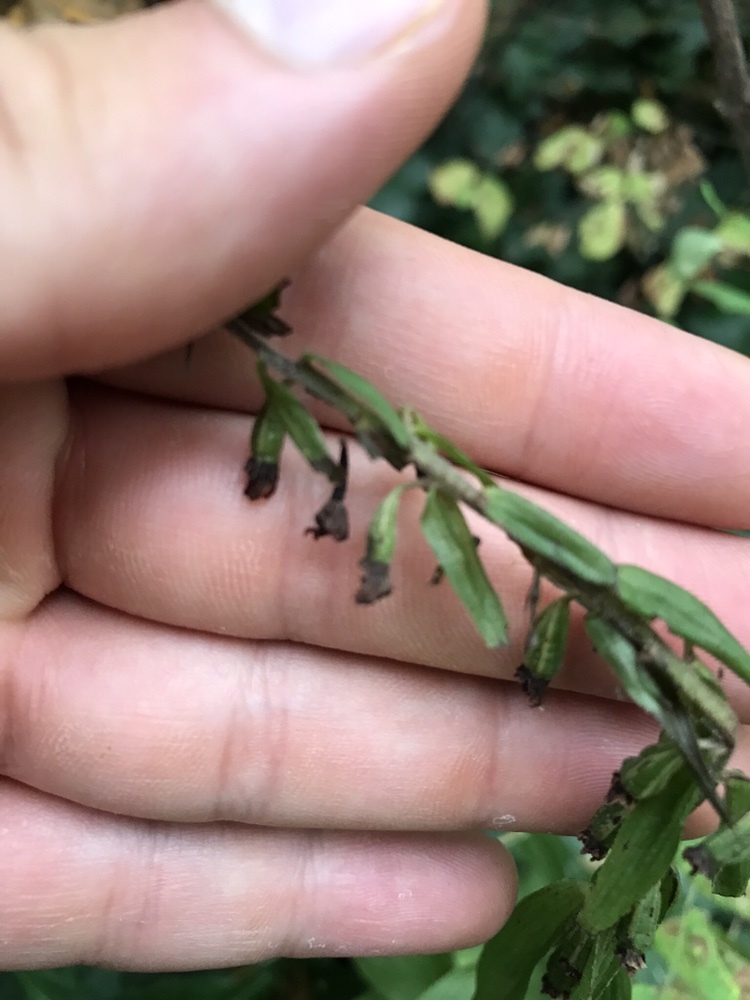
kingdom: Plantae
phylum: Tracheophyta
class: Liliopsida
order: Asparagales
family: Orchidaceae
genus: Epipactis
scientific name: Epipactis helleborine
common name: Broad-leaved helleborine
